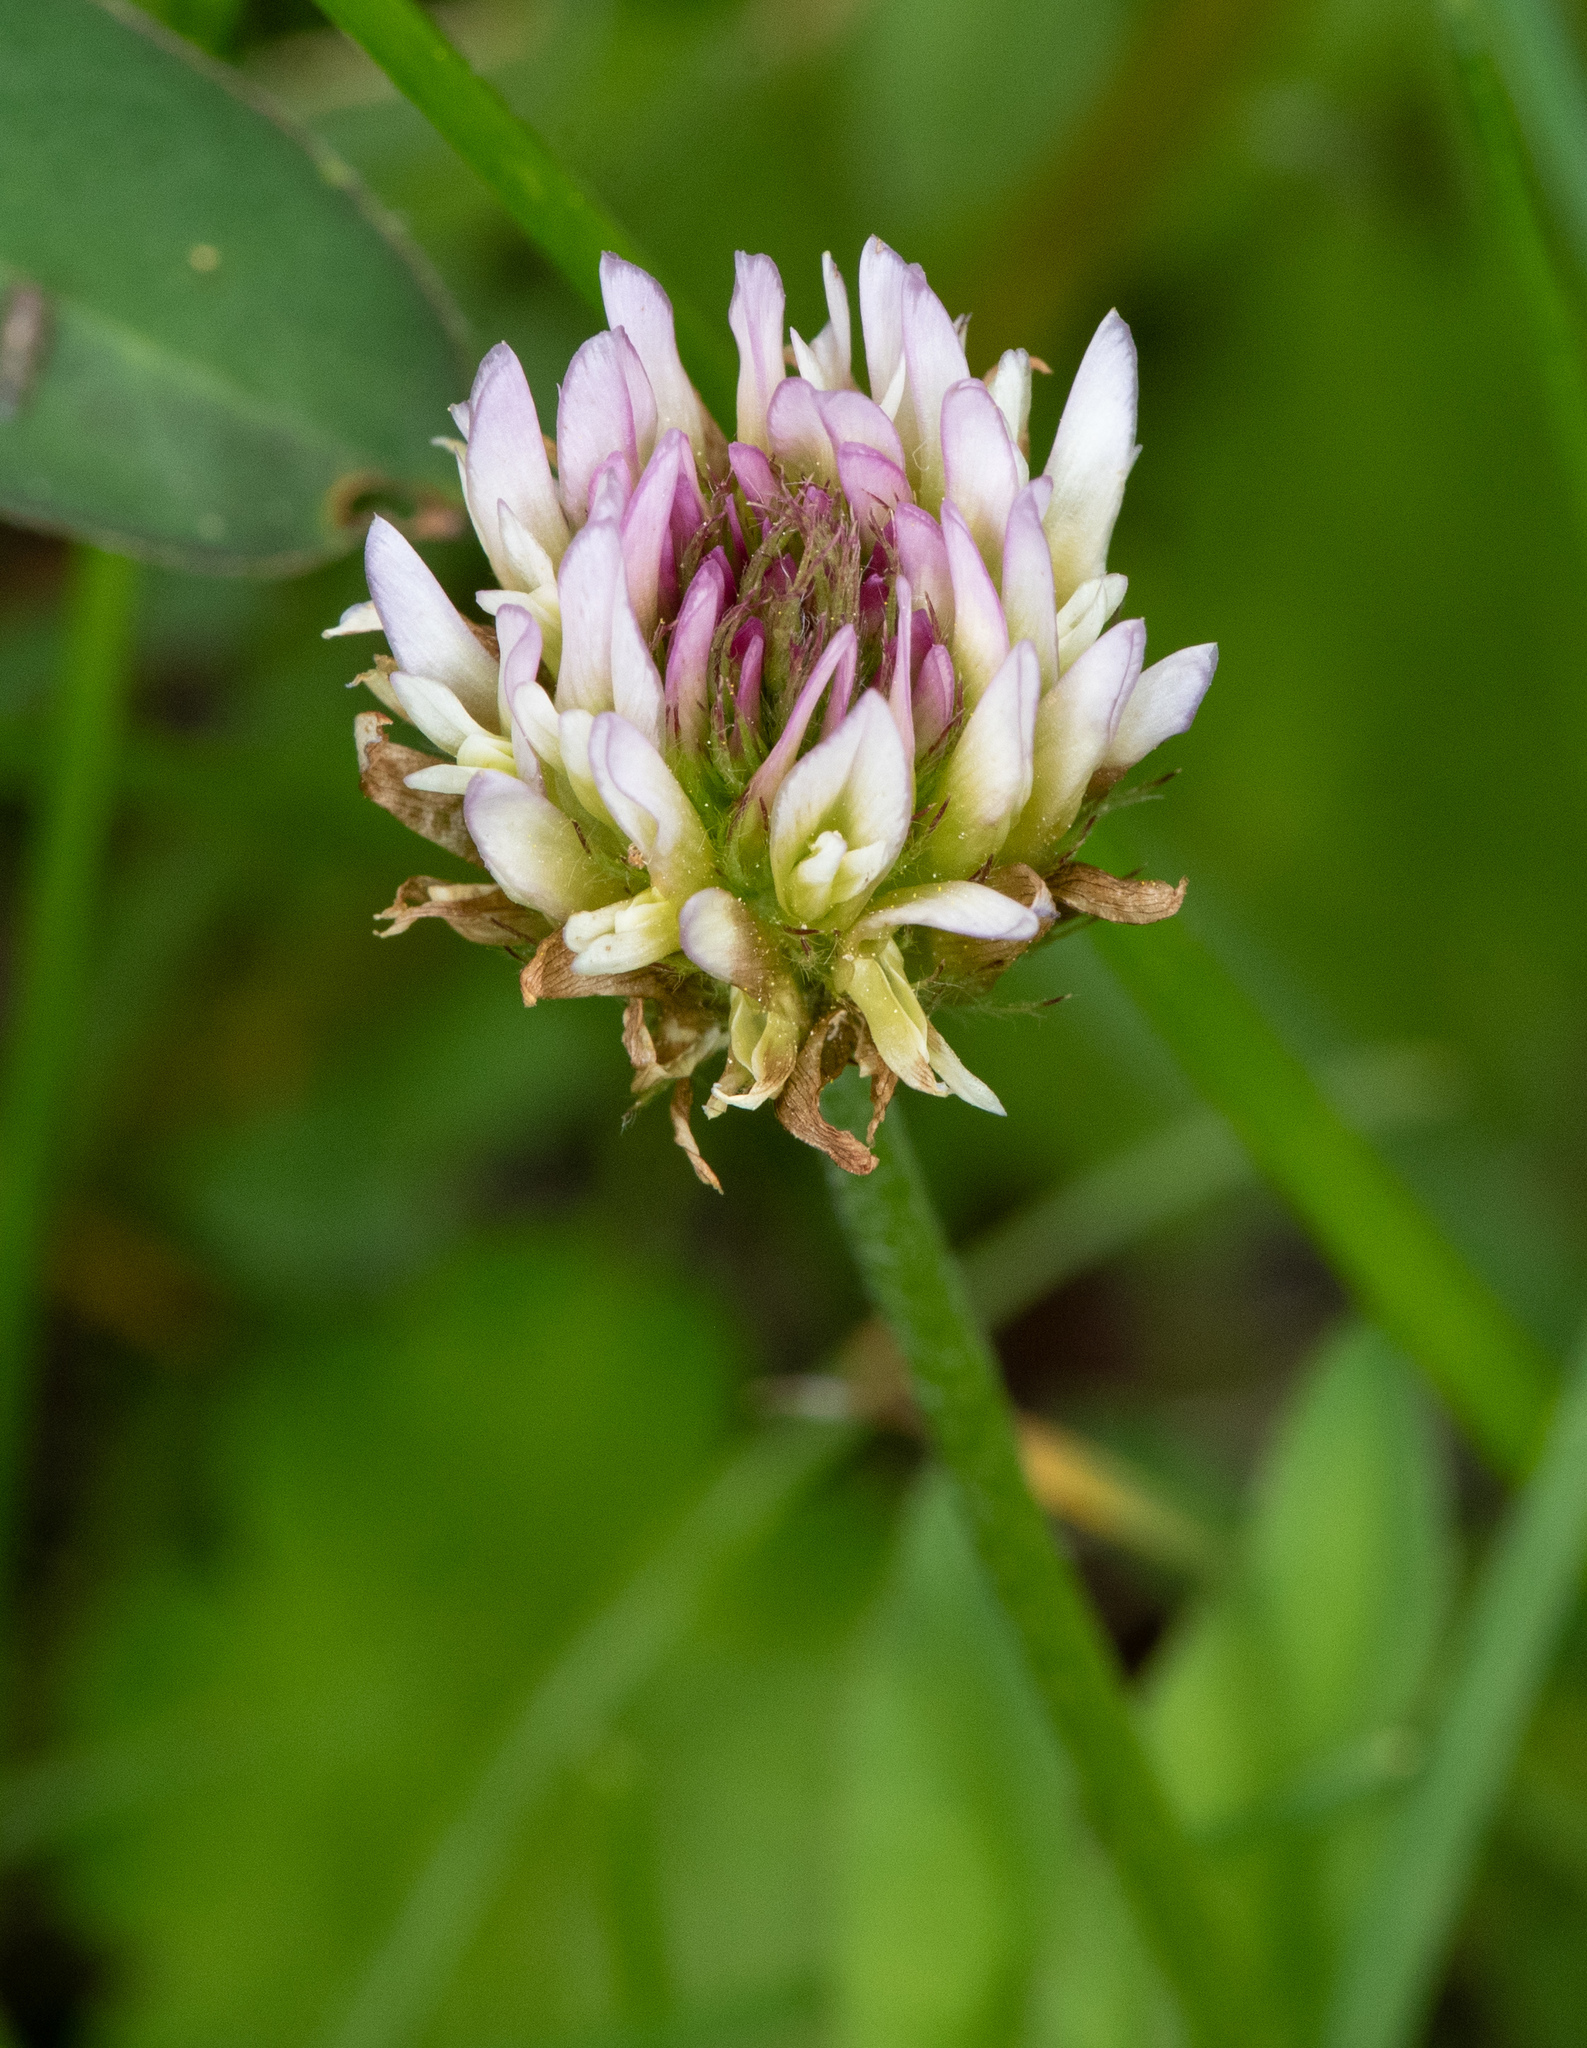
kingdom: Plantae
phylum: Tracheophyta
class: Magnoliopsida
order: Fabales
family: Fabaceae
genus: Trifolium
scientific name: Trifolium longipes
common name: Long-stalk clover
